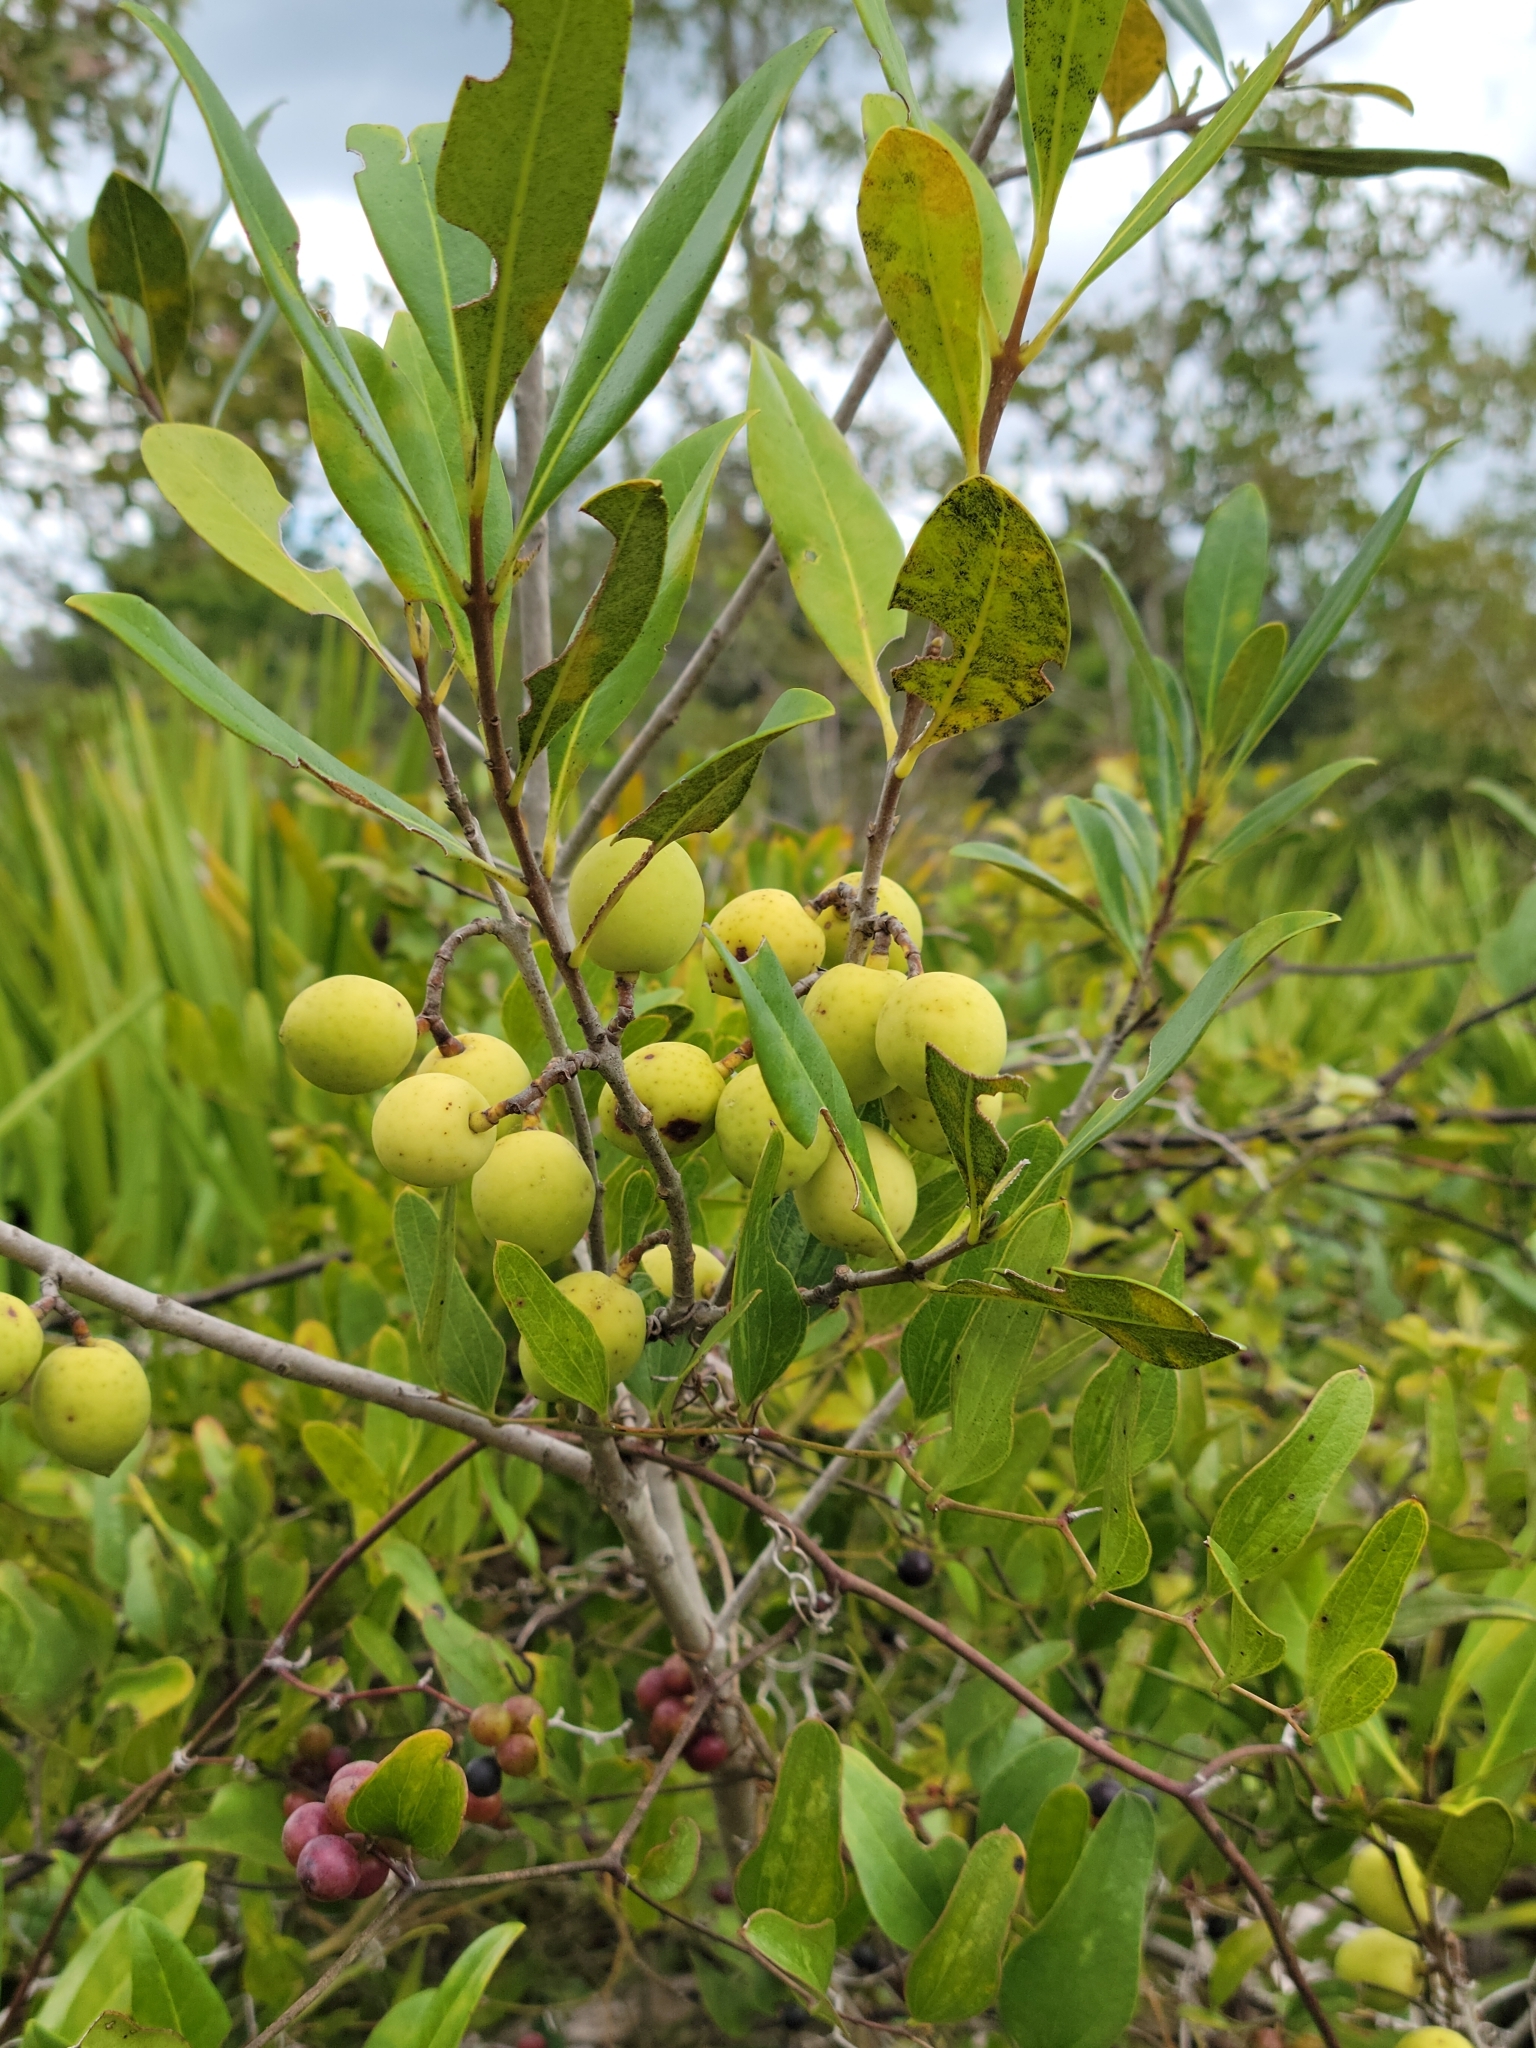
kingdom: Plantae
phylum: Tracheophyta
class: Magnoliopsida
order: Lamiales
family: Oleaceae
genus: Cartrema
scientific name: Cartrema floridana
